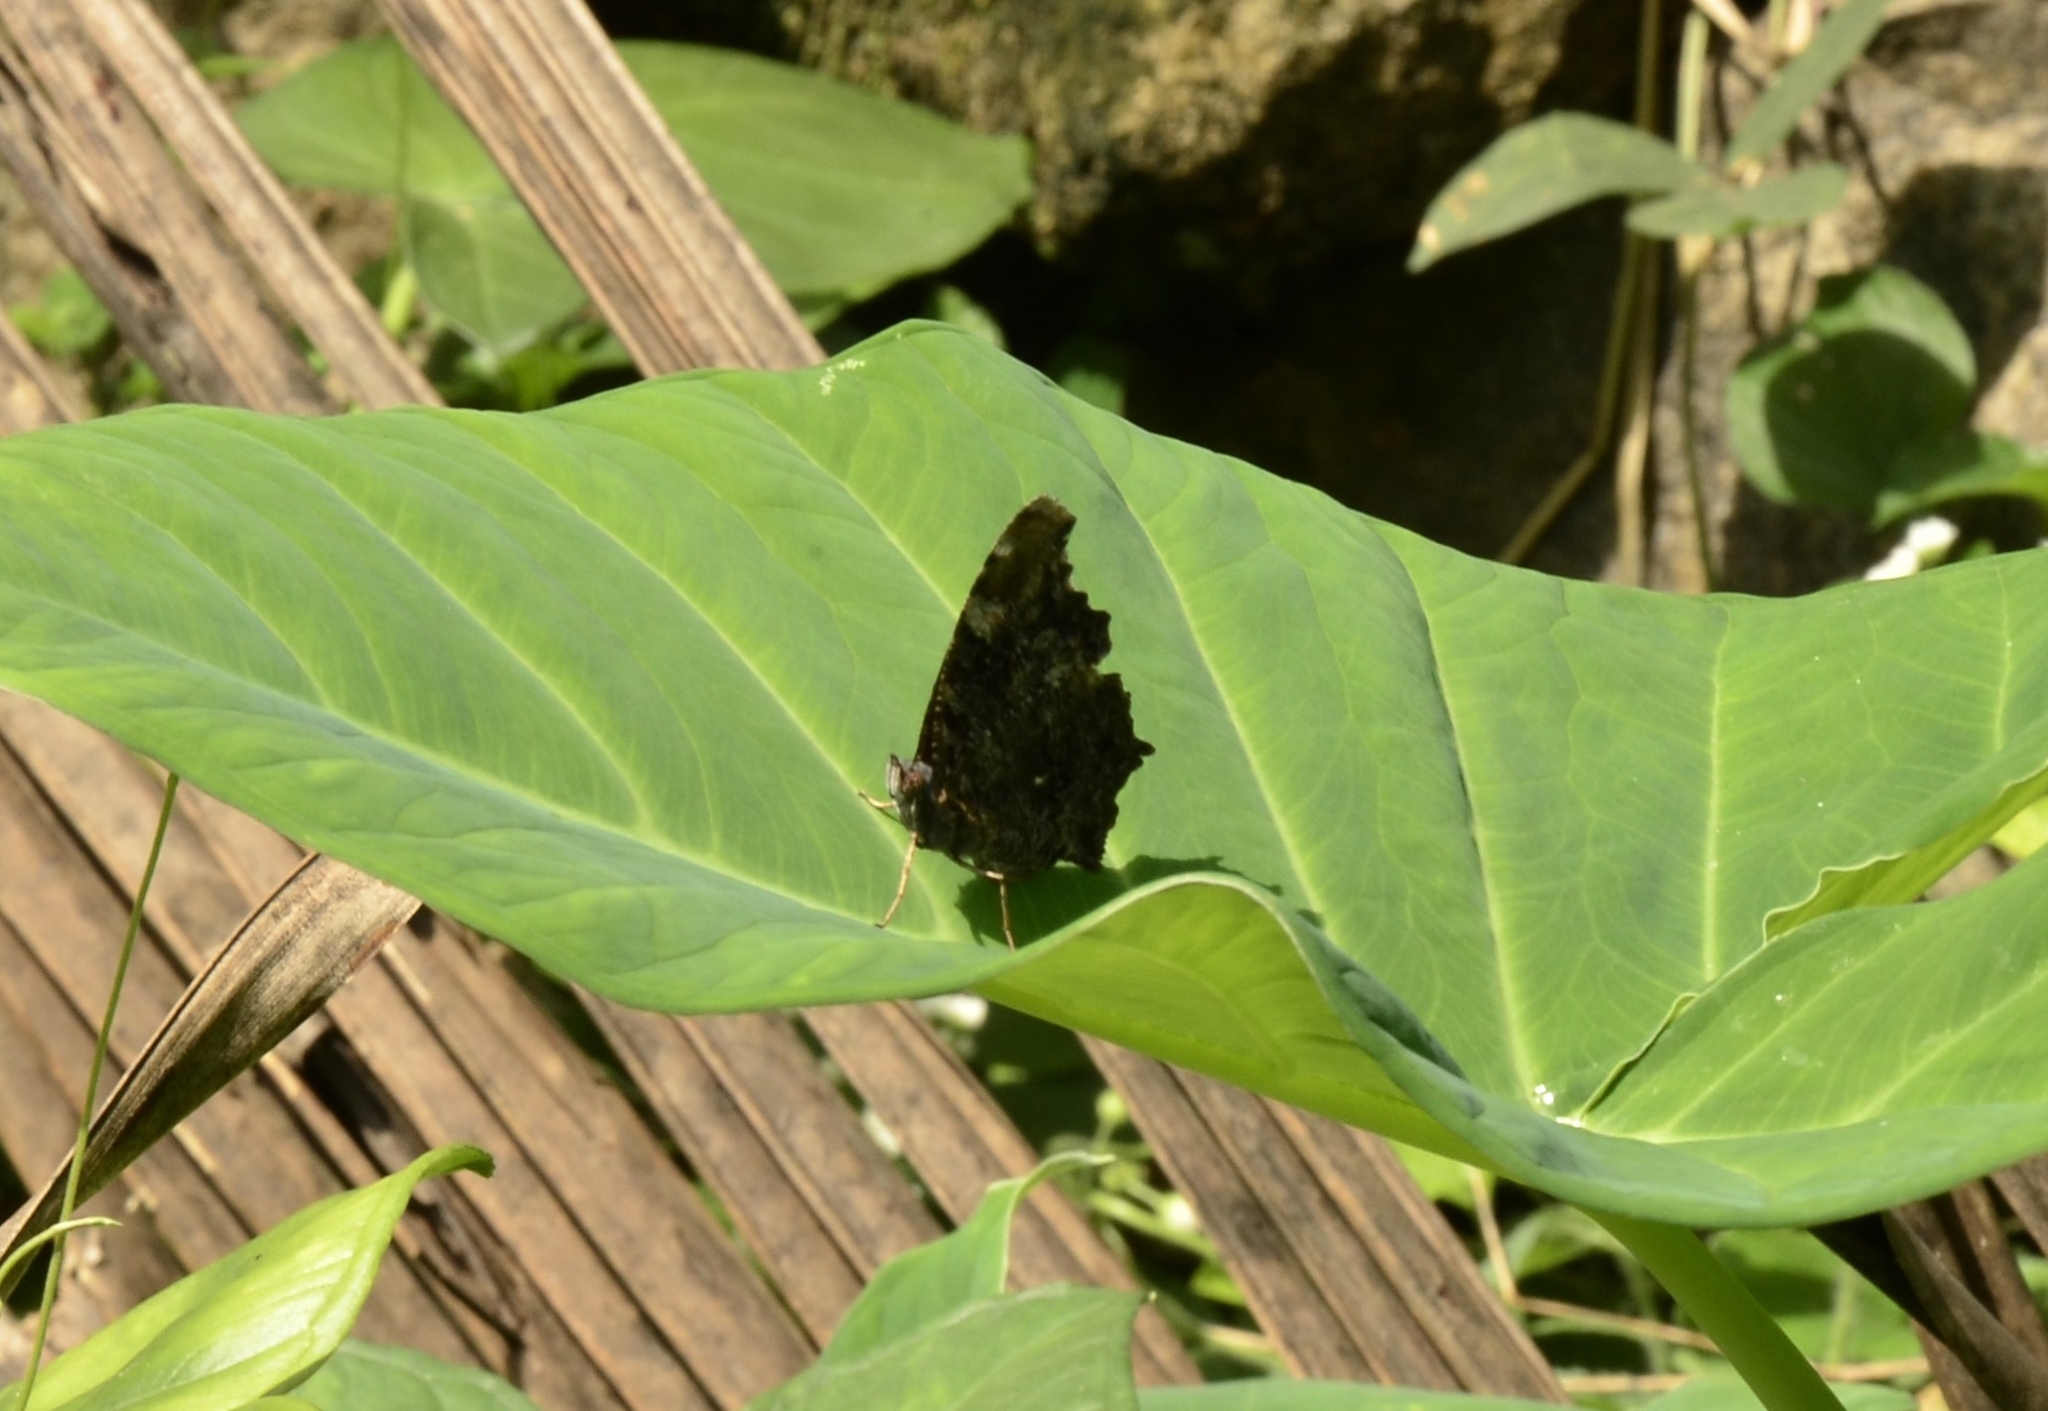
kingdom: Animalia
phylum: Arthropoda
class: Insecta
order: Lepidoptera
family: Nymphalidae
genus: Vanessa
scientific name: Vanessa Kaniska canace
